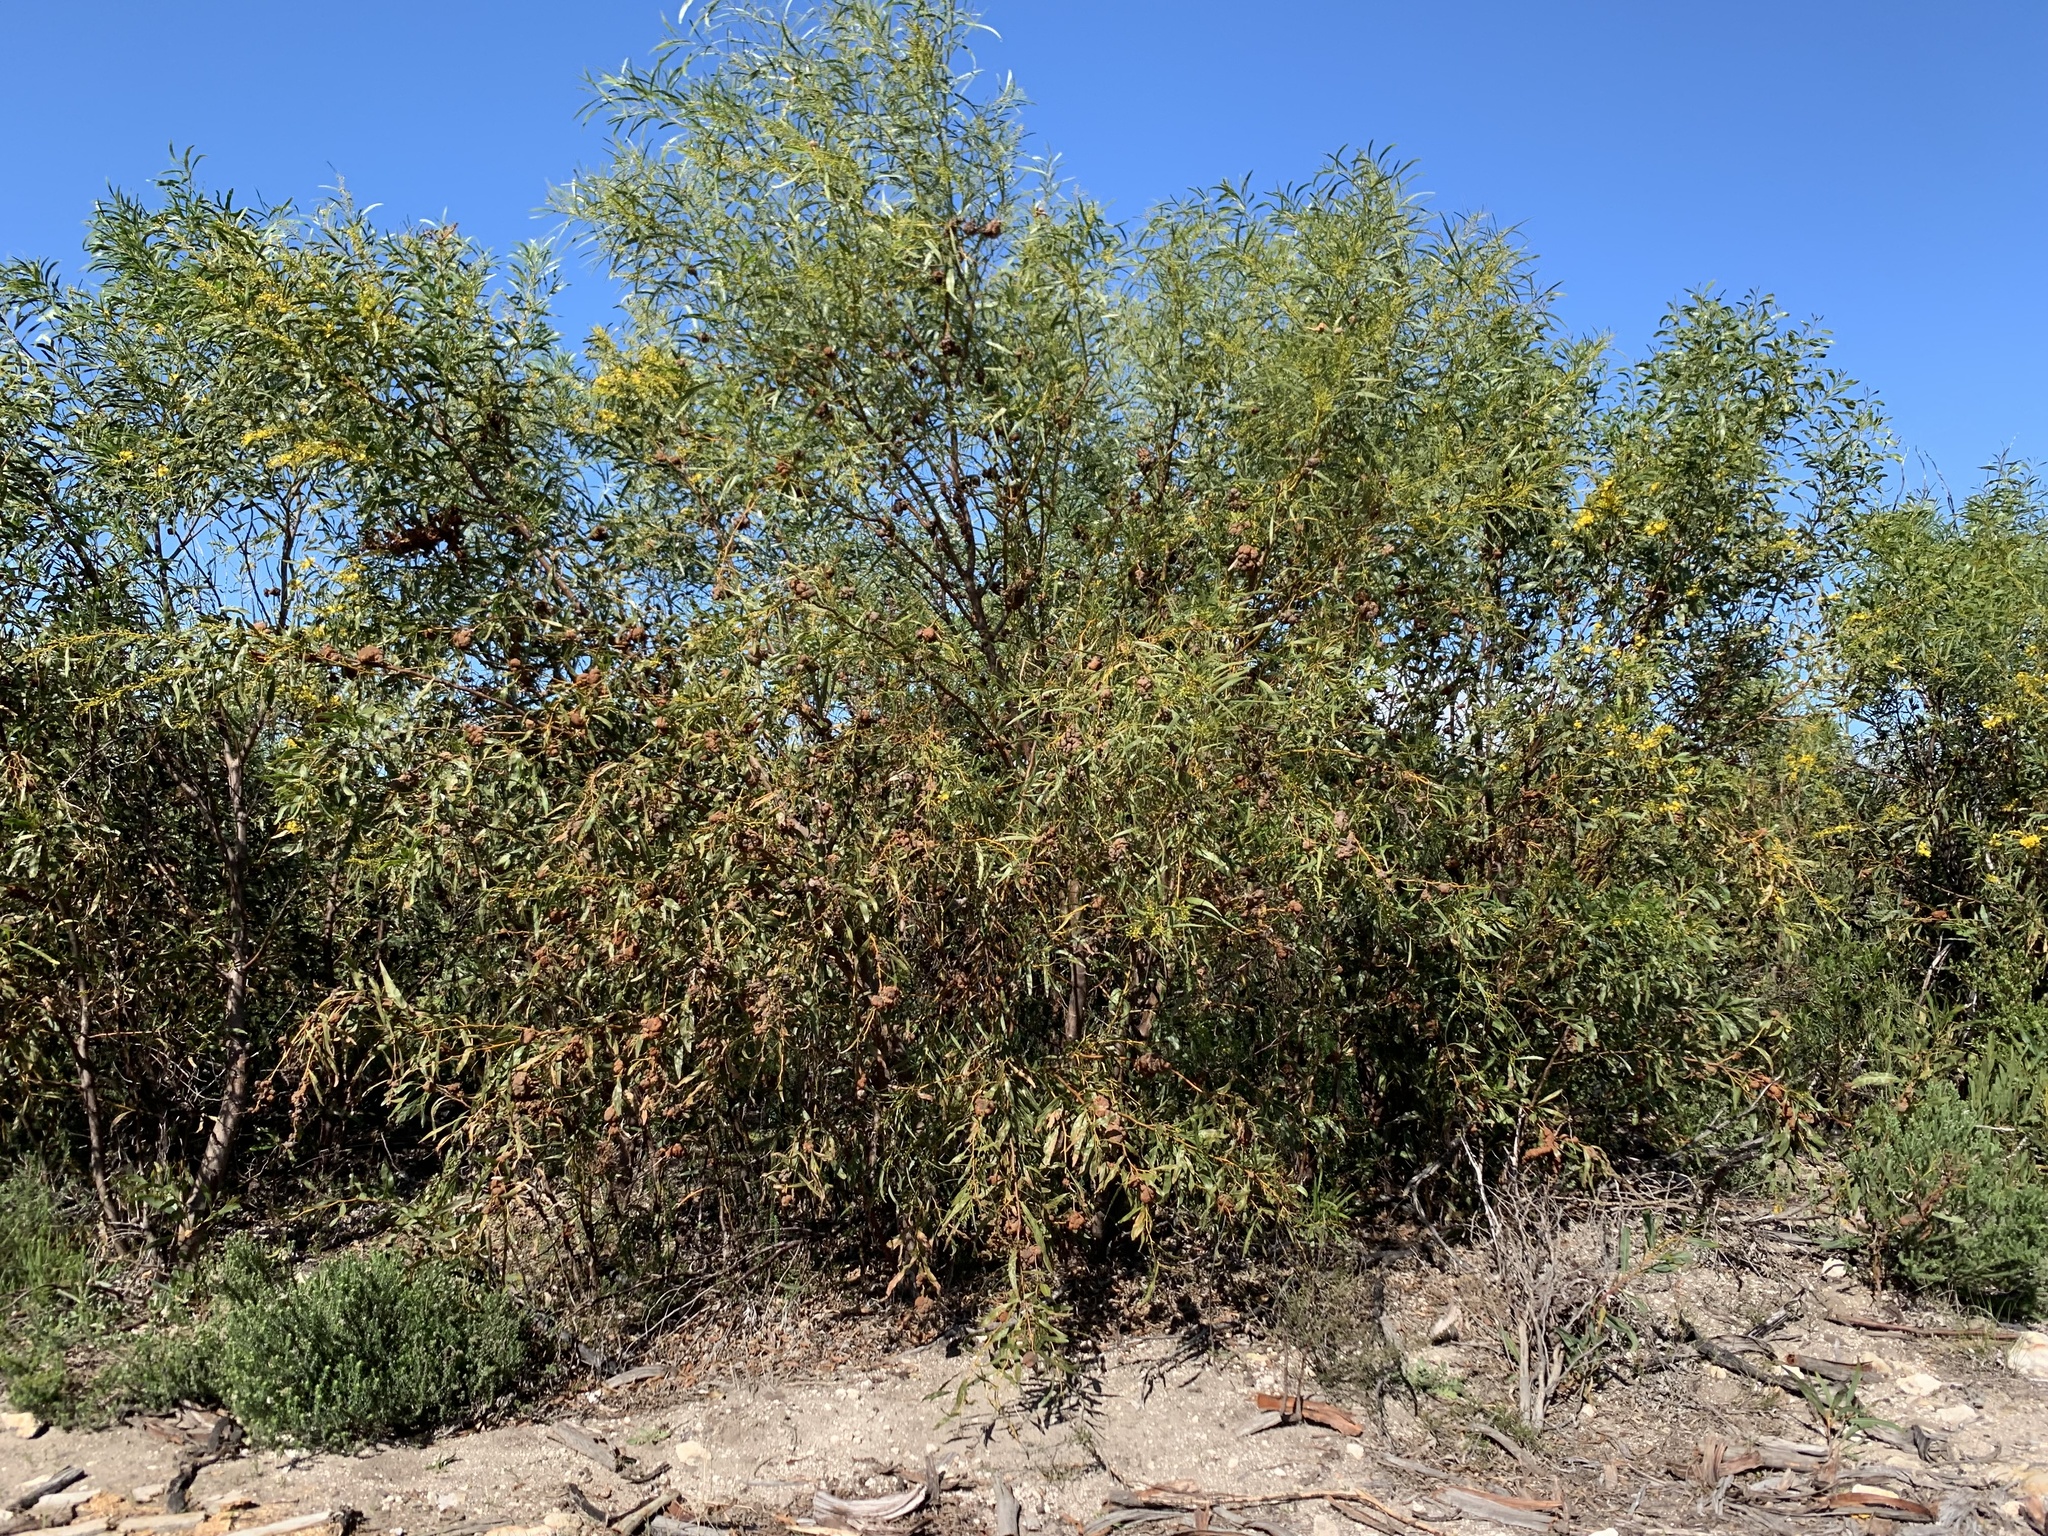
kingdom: Plantae
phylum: Tracheophyta
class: Magnoliopsida
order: Fabales
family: Fabaceae
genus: Acacia
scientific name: Acacia saligna
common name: Orange wattle
